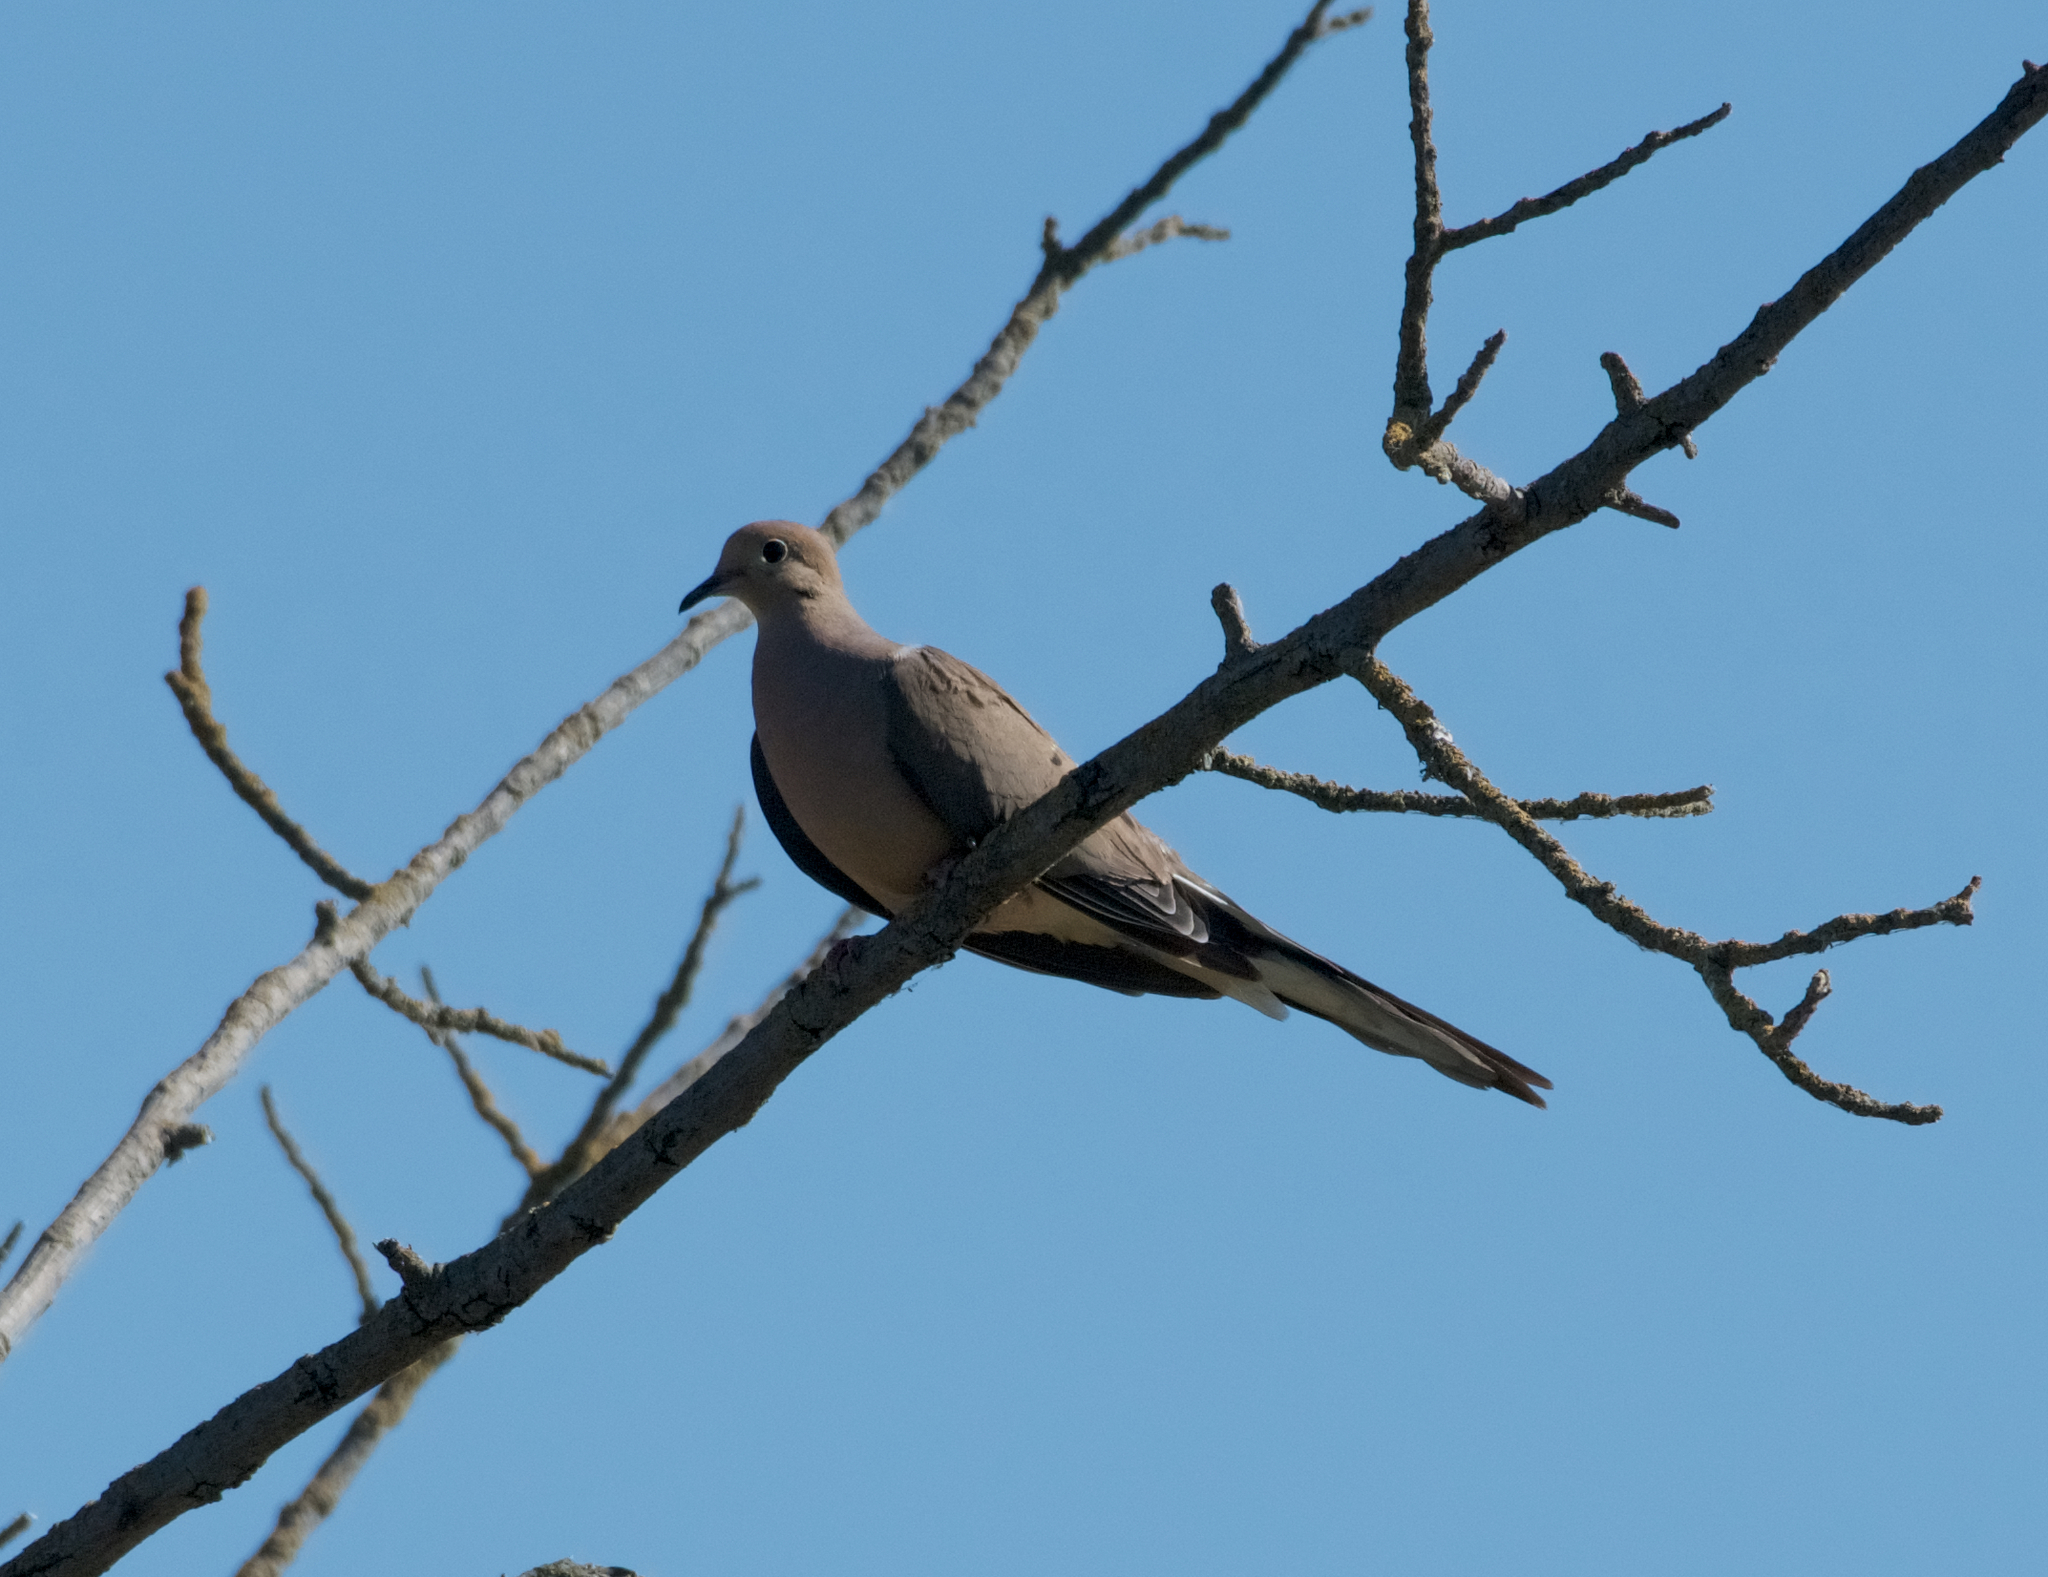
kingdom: Animalia
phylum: Chordata
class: Aves
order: Columbiformes
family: Columbidae
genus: Zenaida
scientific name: Zenaida macroura
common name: Mourning dove
